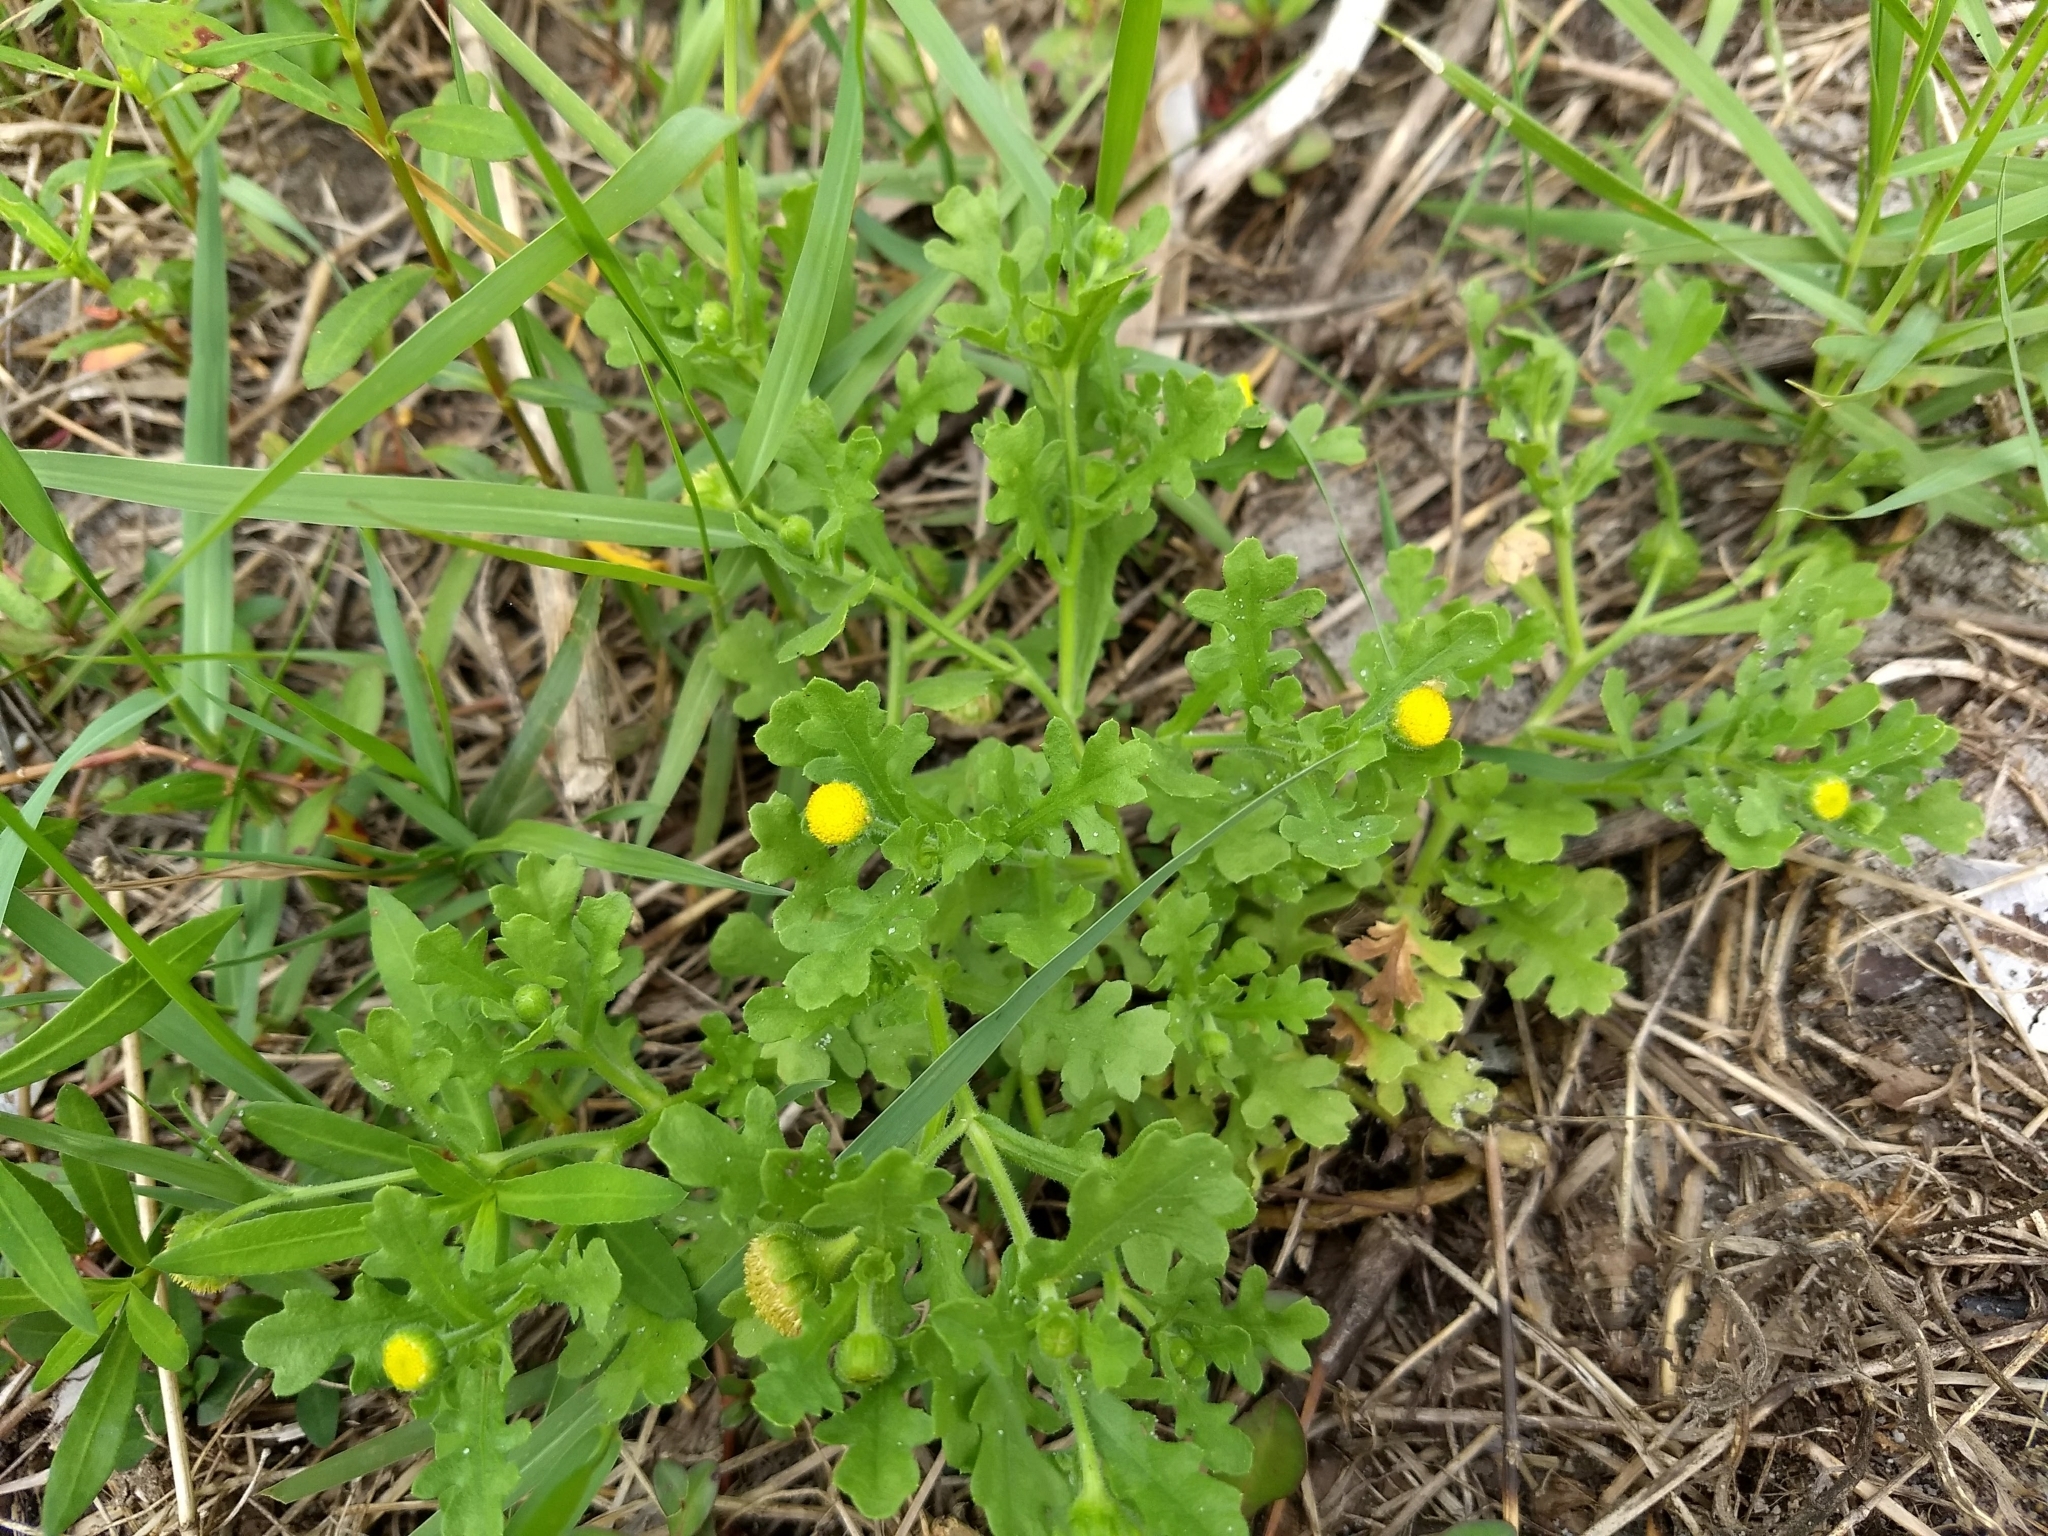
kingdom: Plantae
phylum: Tracheophyta
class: Magnoliopsida
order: Asterales
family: Asteraceae
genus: Grangea
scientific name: Grangea maderaspatana
